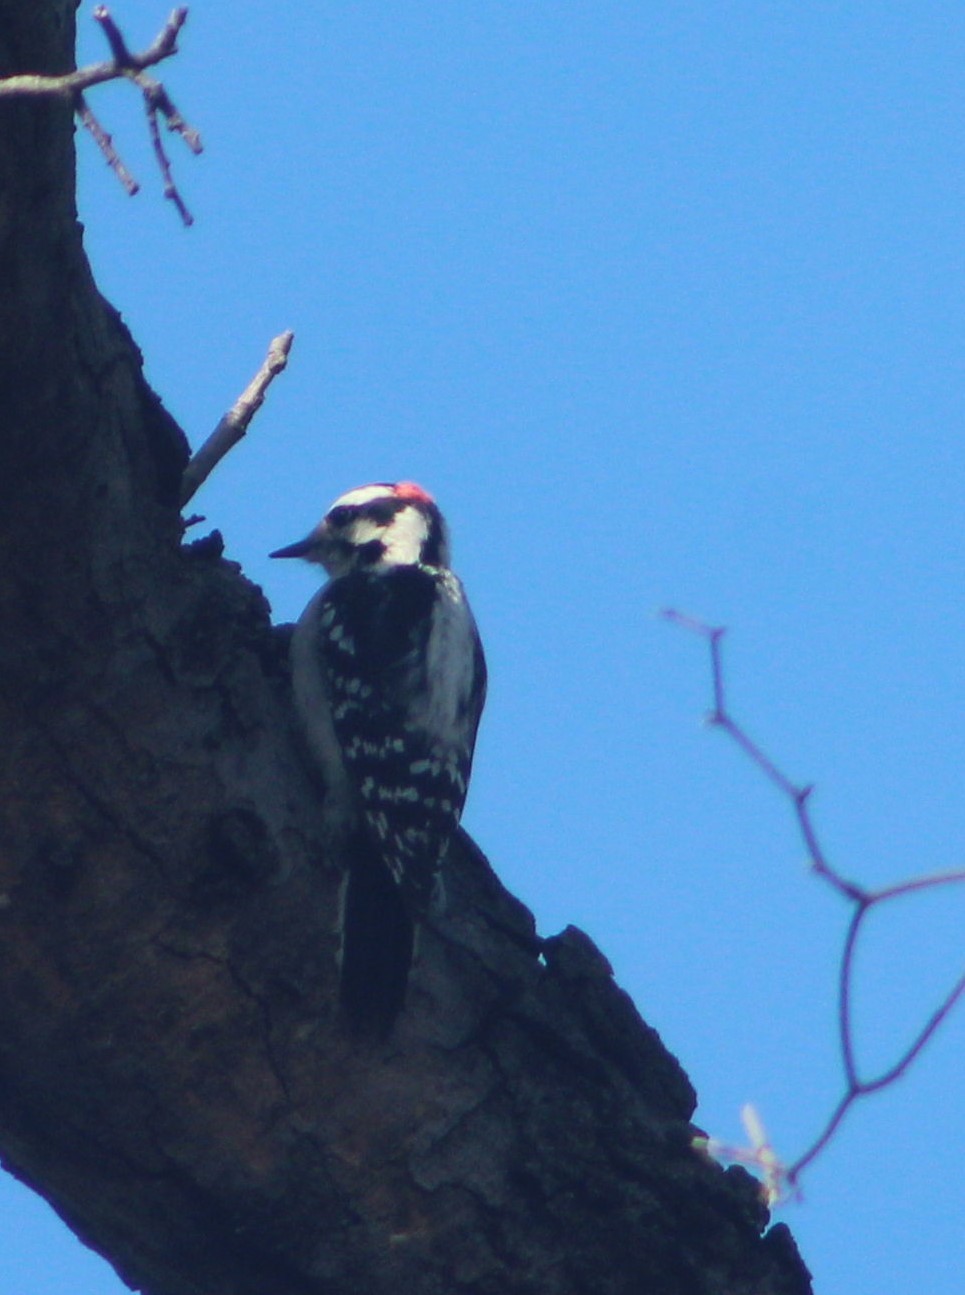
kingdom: Animalia
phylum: Chordata
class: Aves
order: Piciformes
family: Picidae
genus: Dryobates
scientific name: Dryobates pubescens
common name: Downy woodpecker
